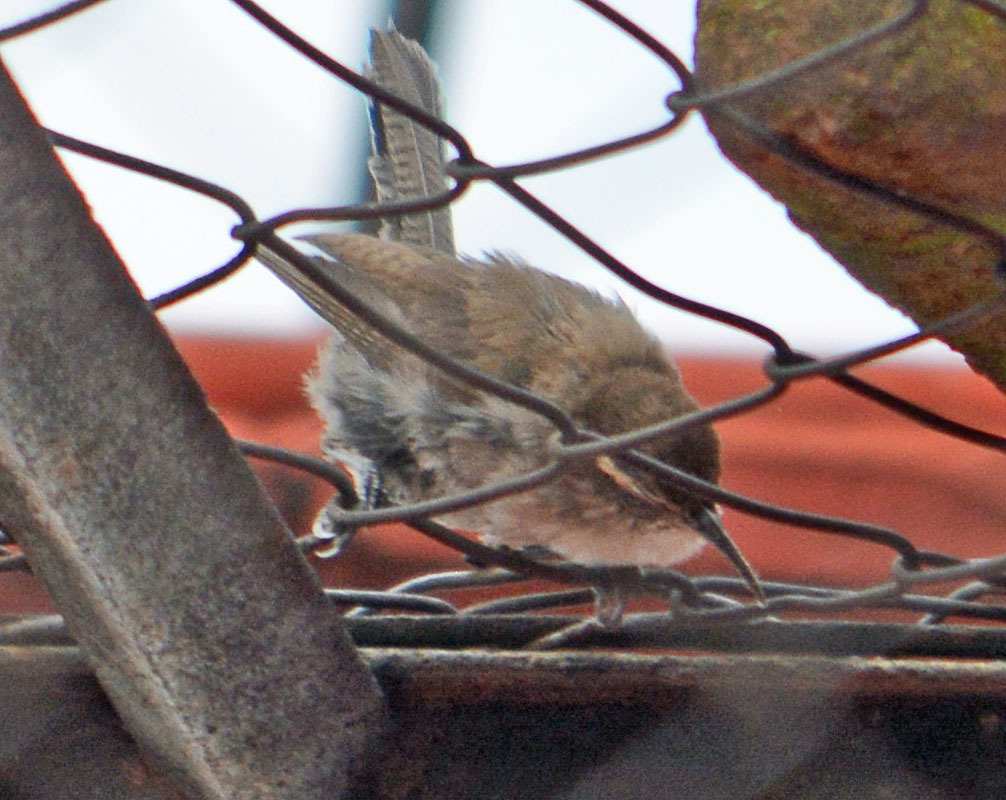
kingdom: Animalia
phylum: Chordata
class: Aves
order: Passeriformes
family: Troglodytidae
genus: Thryomanes
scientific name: Thryomanes bewickii
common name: Bewick's wren
